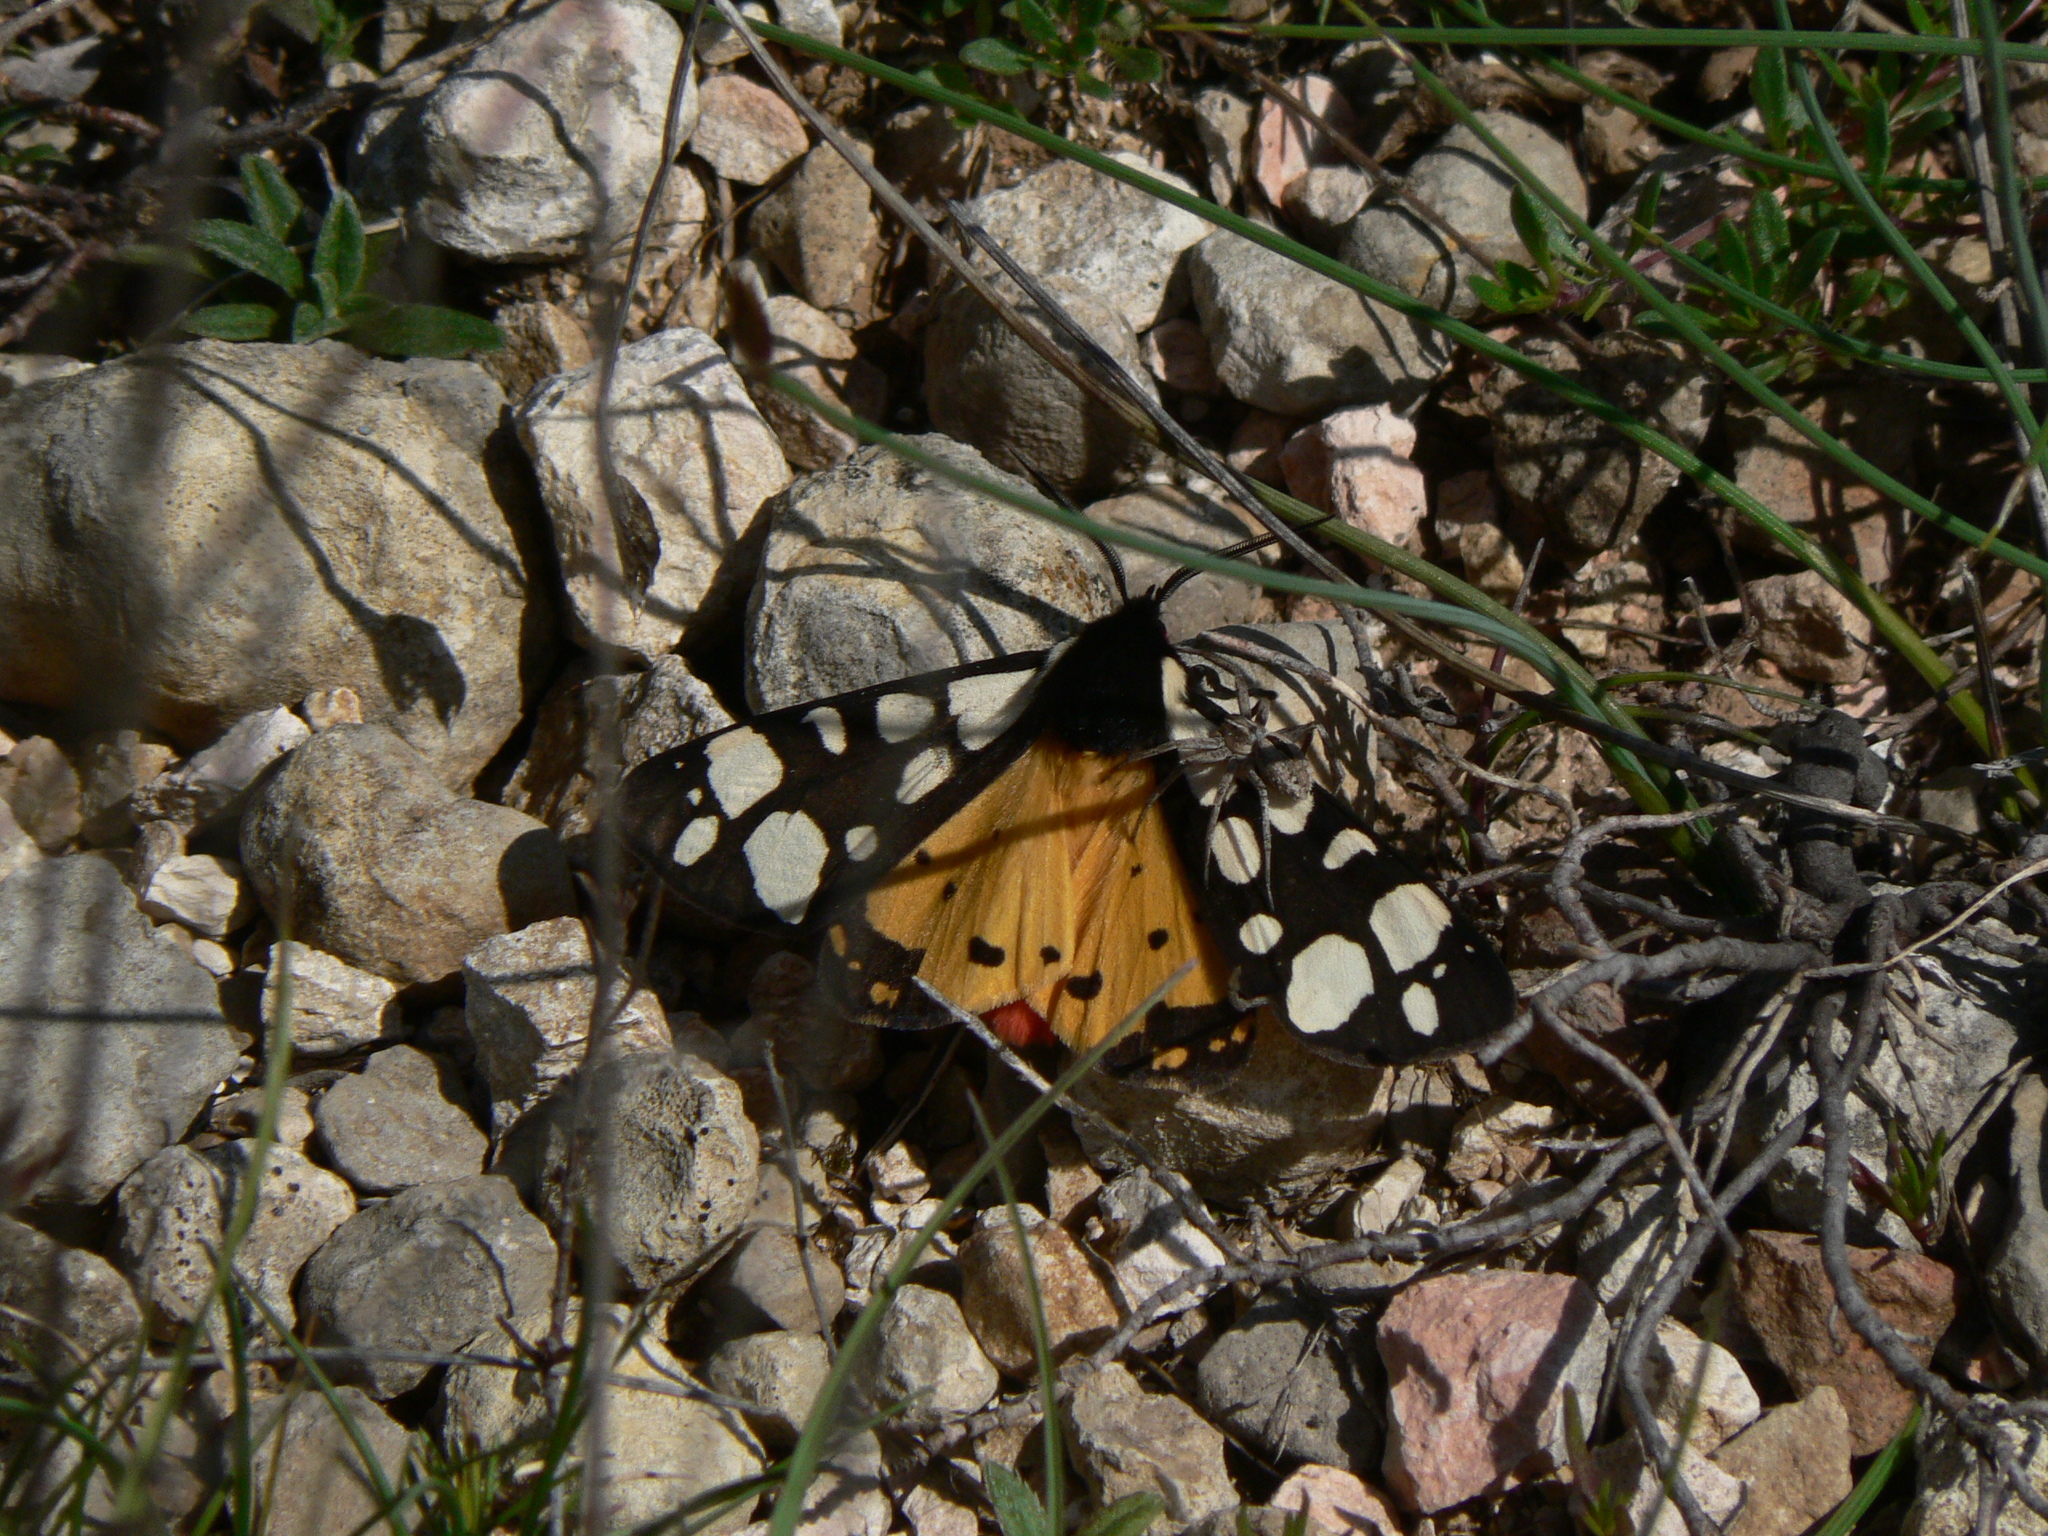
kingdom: Animalia
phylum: Arthropoda
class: Insecta
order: Lepidoptera
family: Erebidae
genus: Epicallia
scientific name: Epicallia villica
